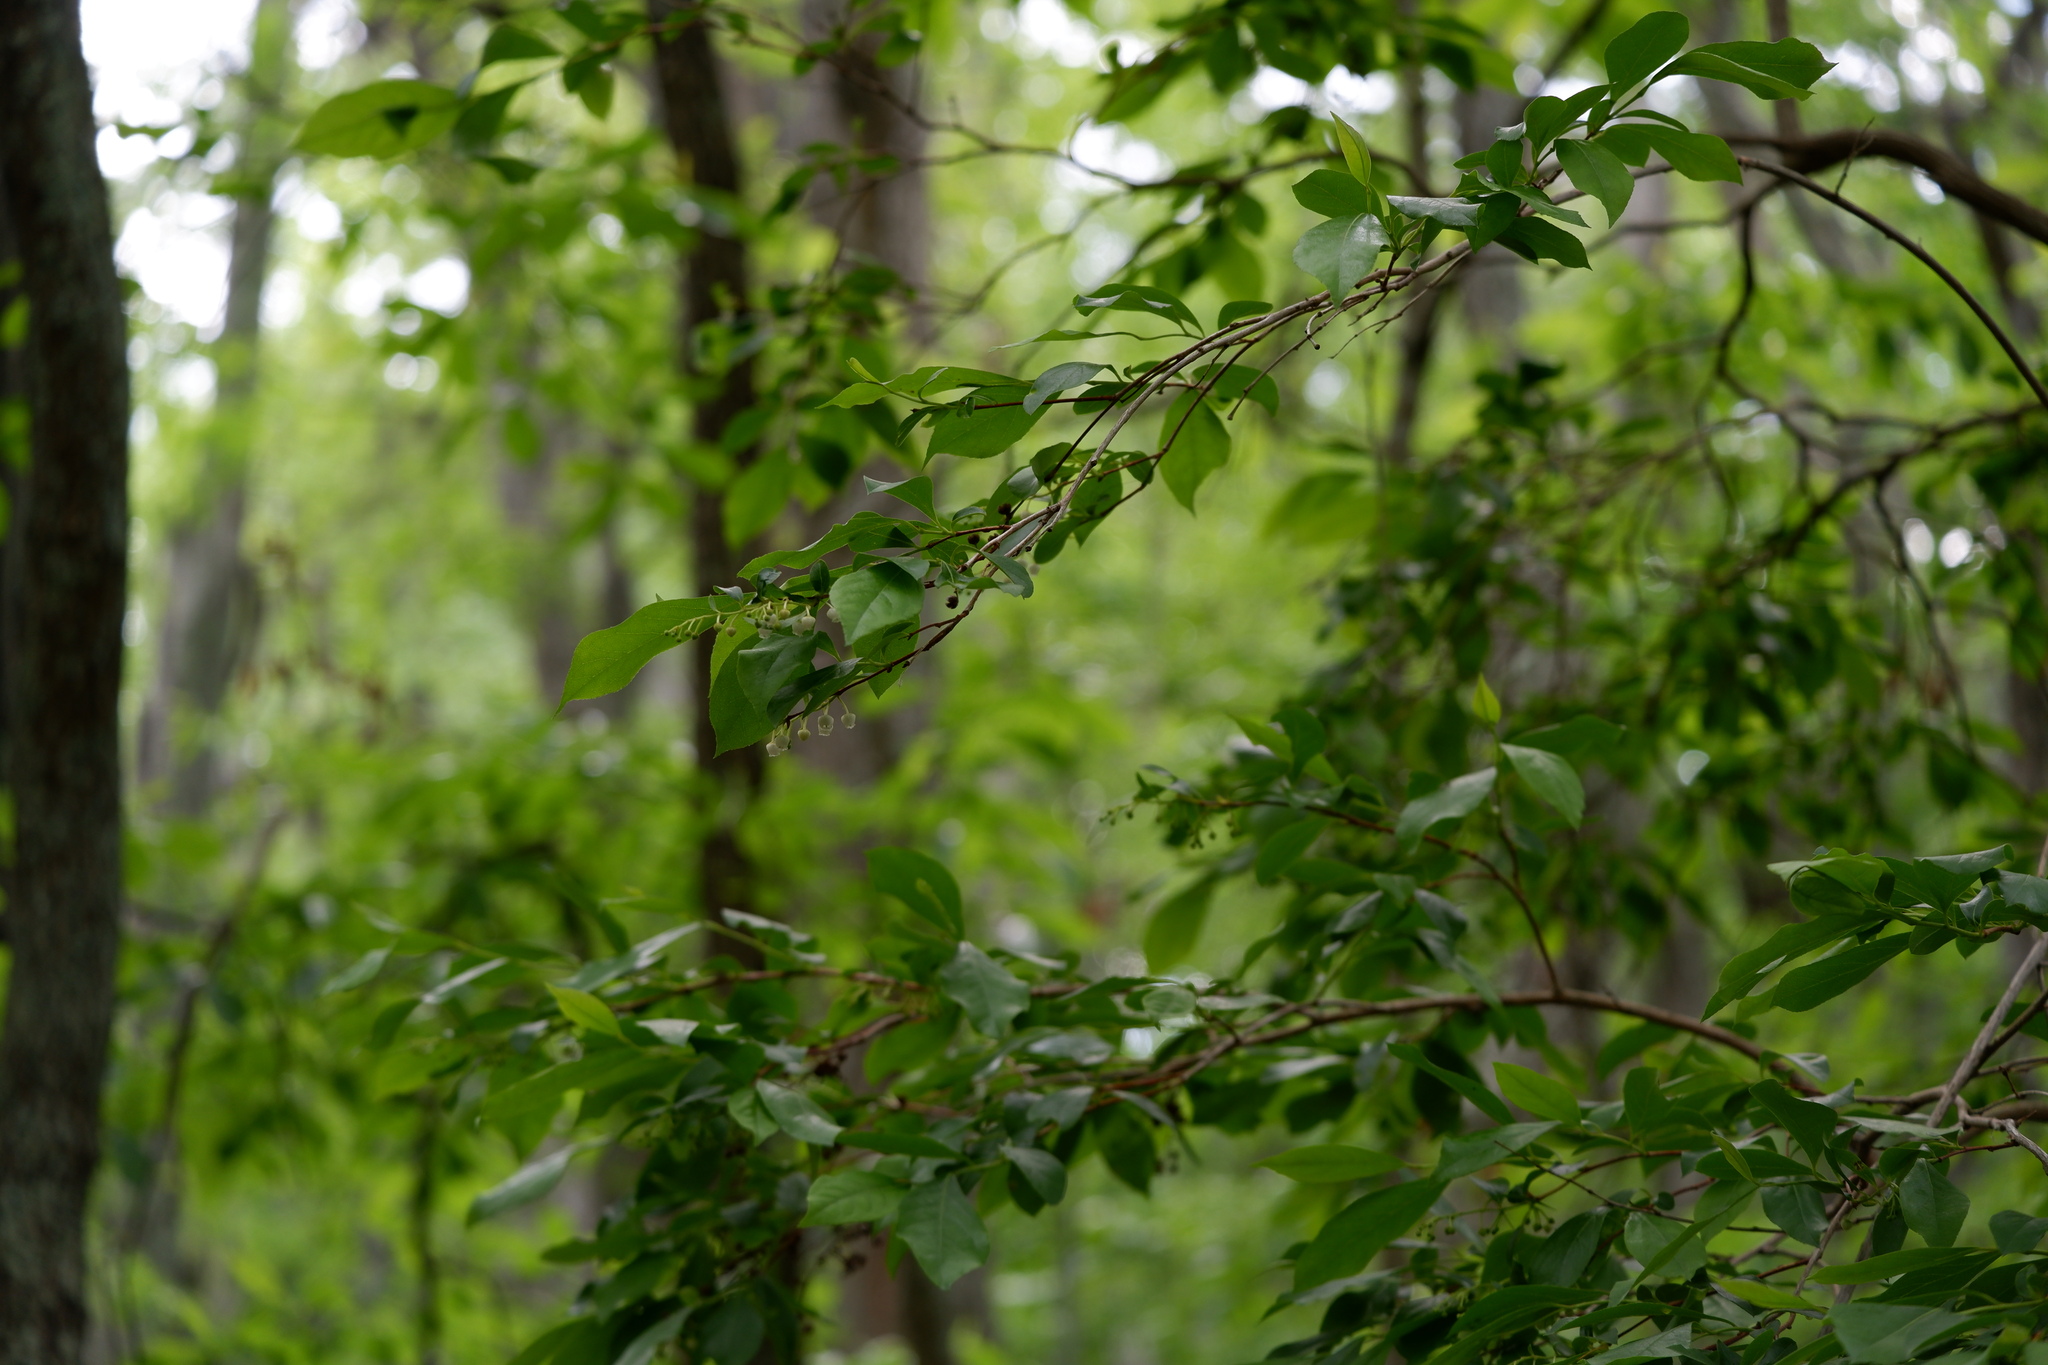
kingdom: Plantae
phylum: Tracheophyta
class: Magnoliopsida
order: Ericales
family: Ericaceae
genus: Lyonia
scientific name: Lyonia ligustrina
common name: Maleberry
